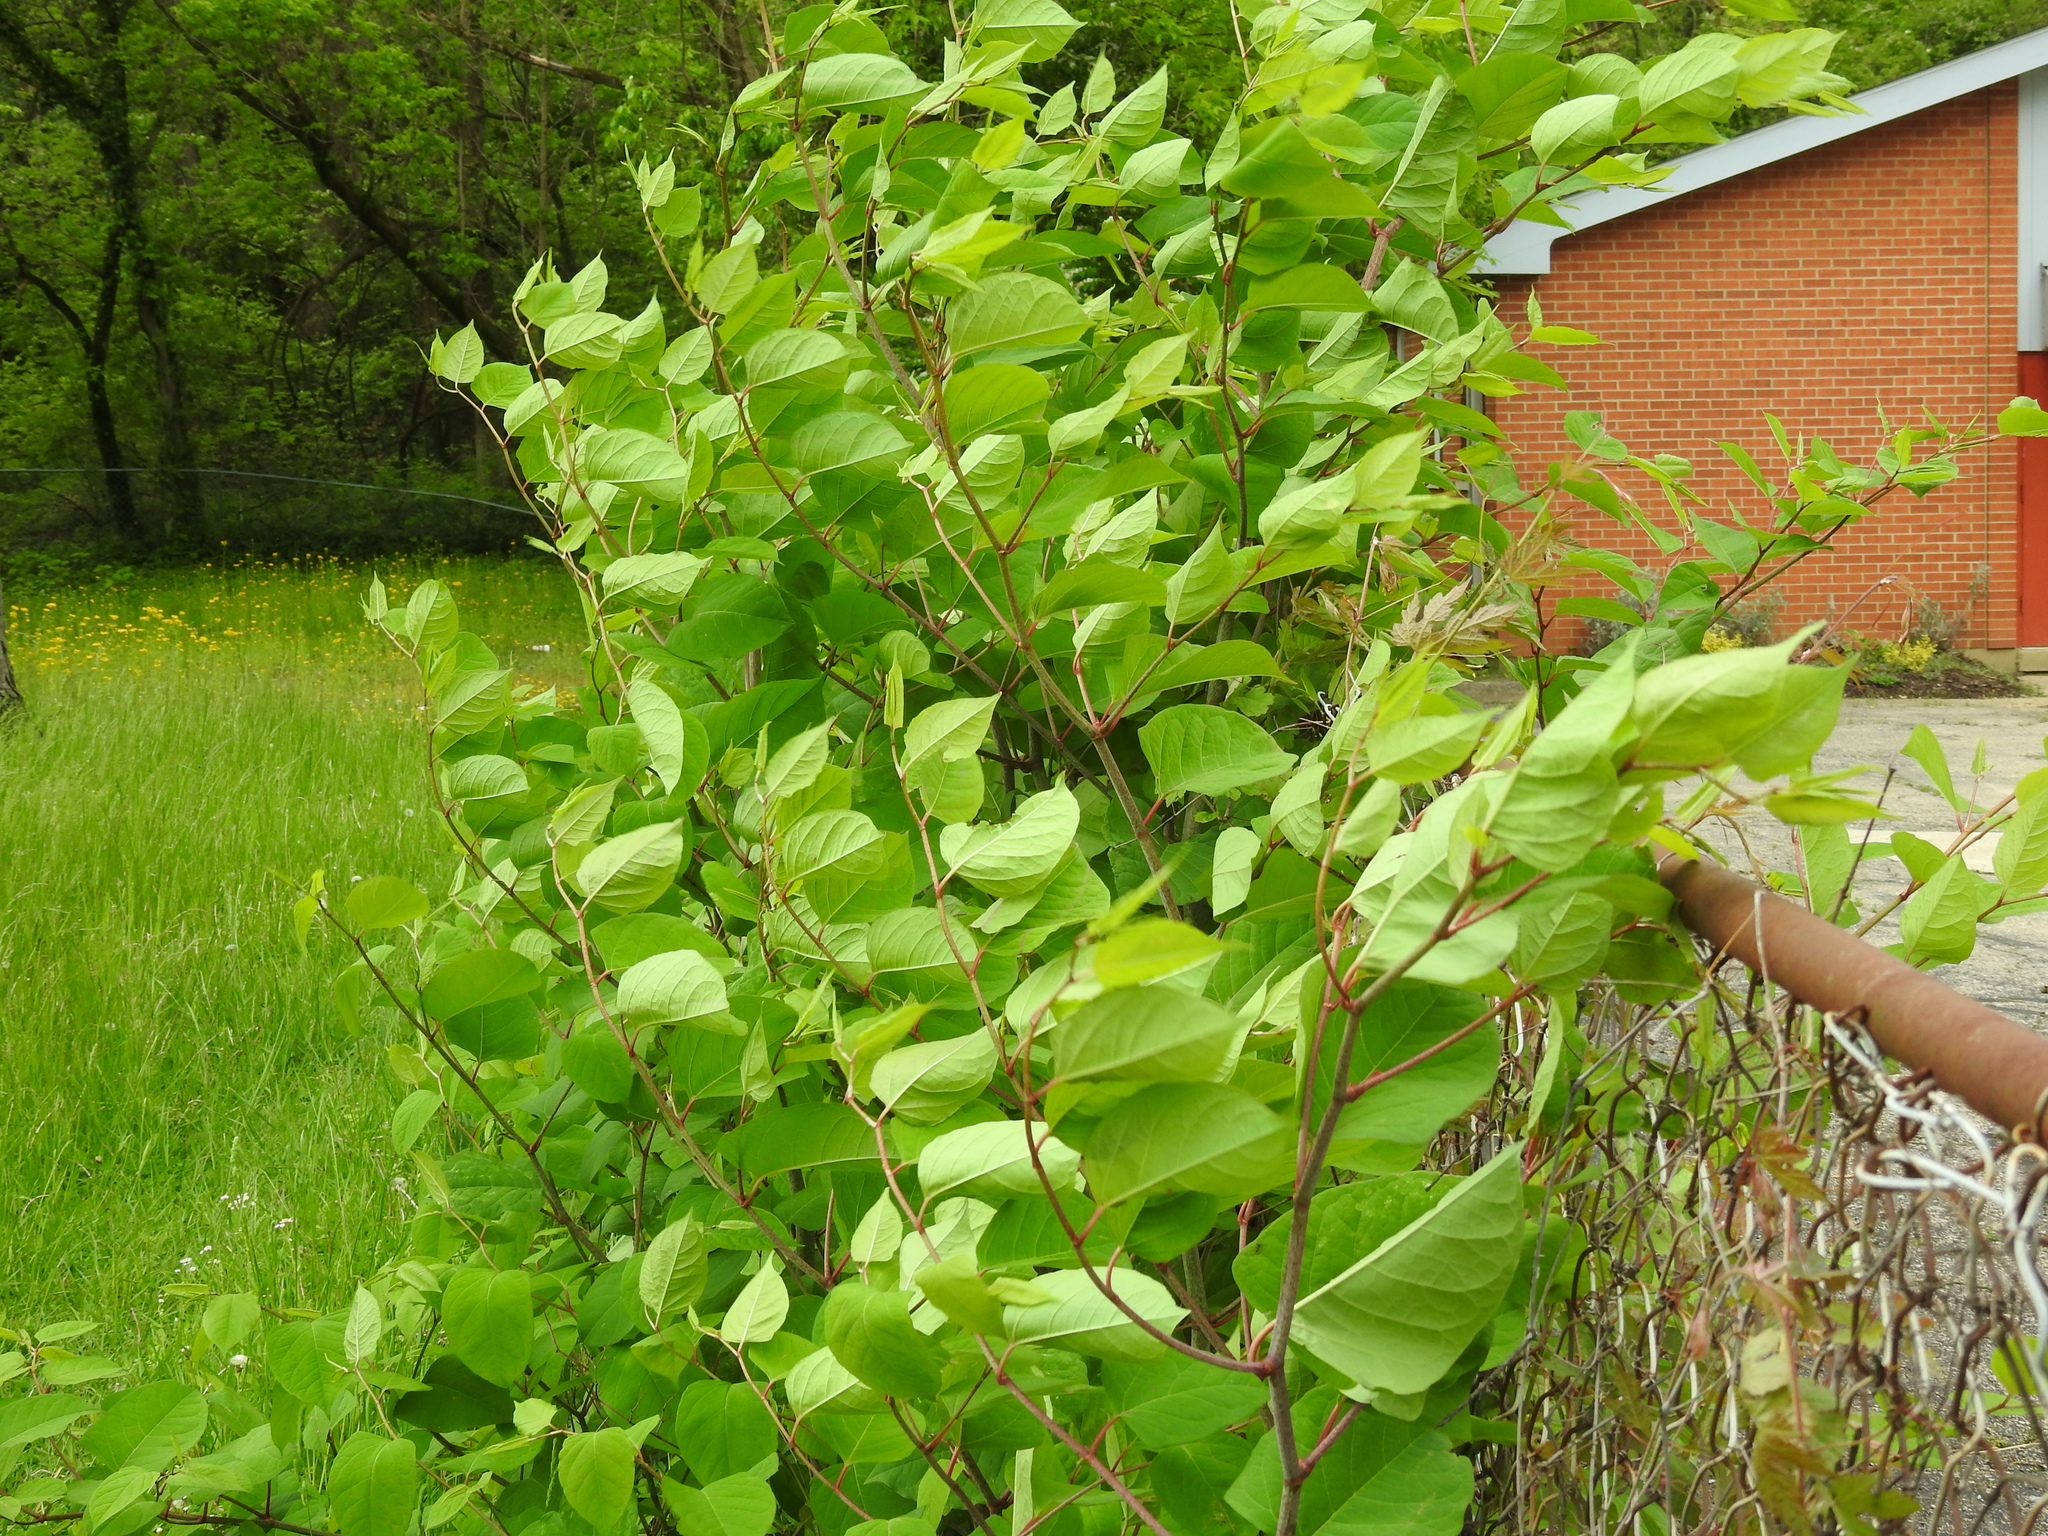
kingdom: Plantae
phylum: Tracheophyta
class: Magnoliopsida
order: Caryophyllales
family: Polygonaceae
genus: Reynoutria
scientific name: Reynoutria japonica
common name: Japanese knotweed
